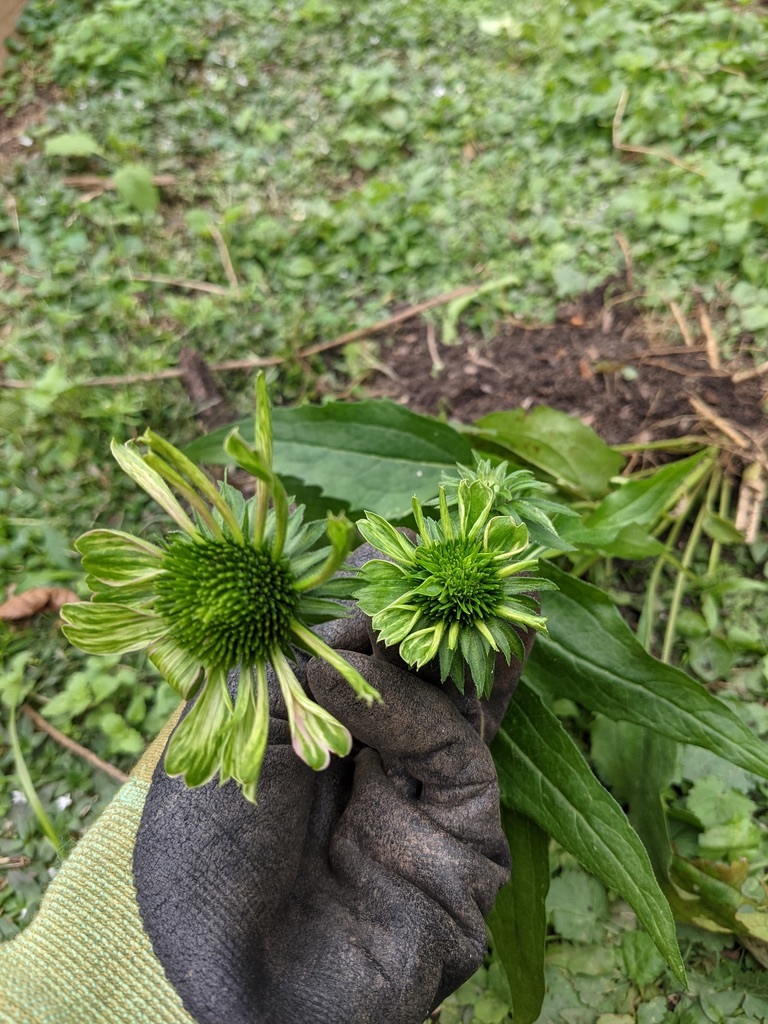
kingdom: Bacteria
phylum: Firmicutes
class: Bacilli
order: Acholeplasmatales
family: Acholeplasmataceae
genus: Phytoplasma
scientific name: Phytoplasma
